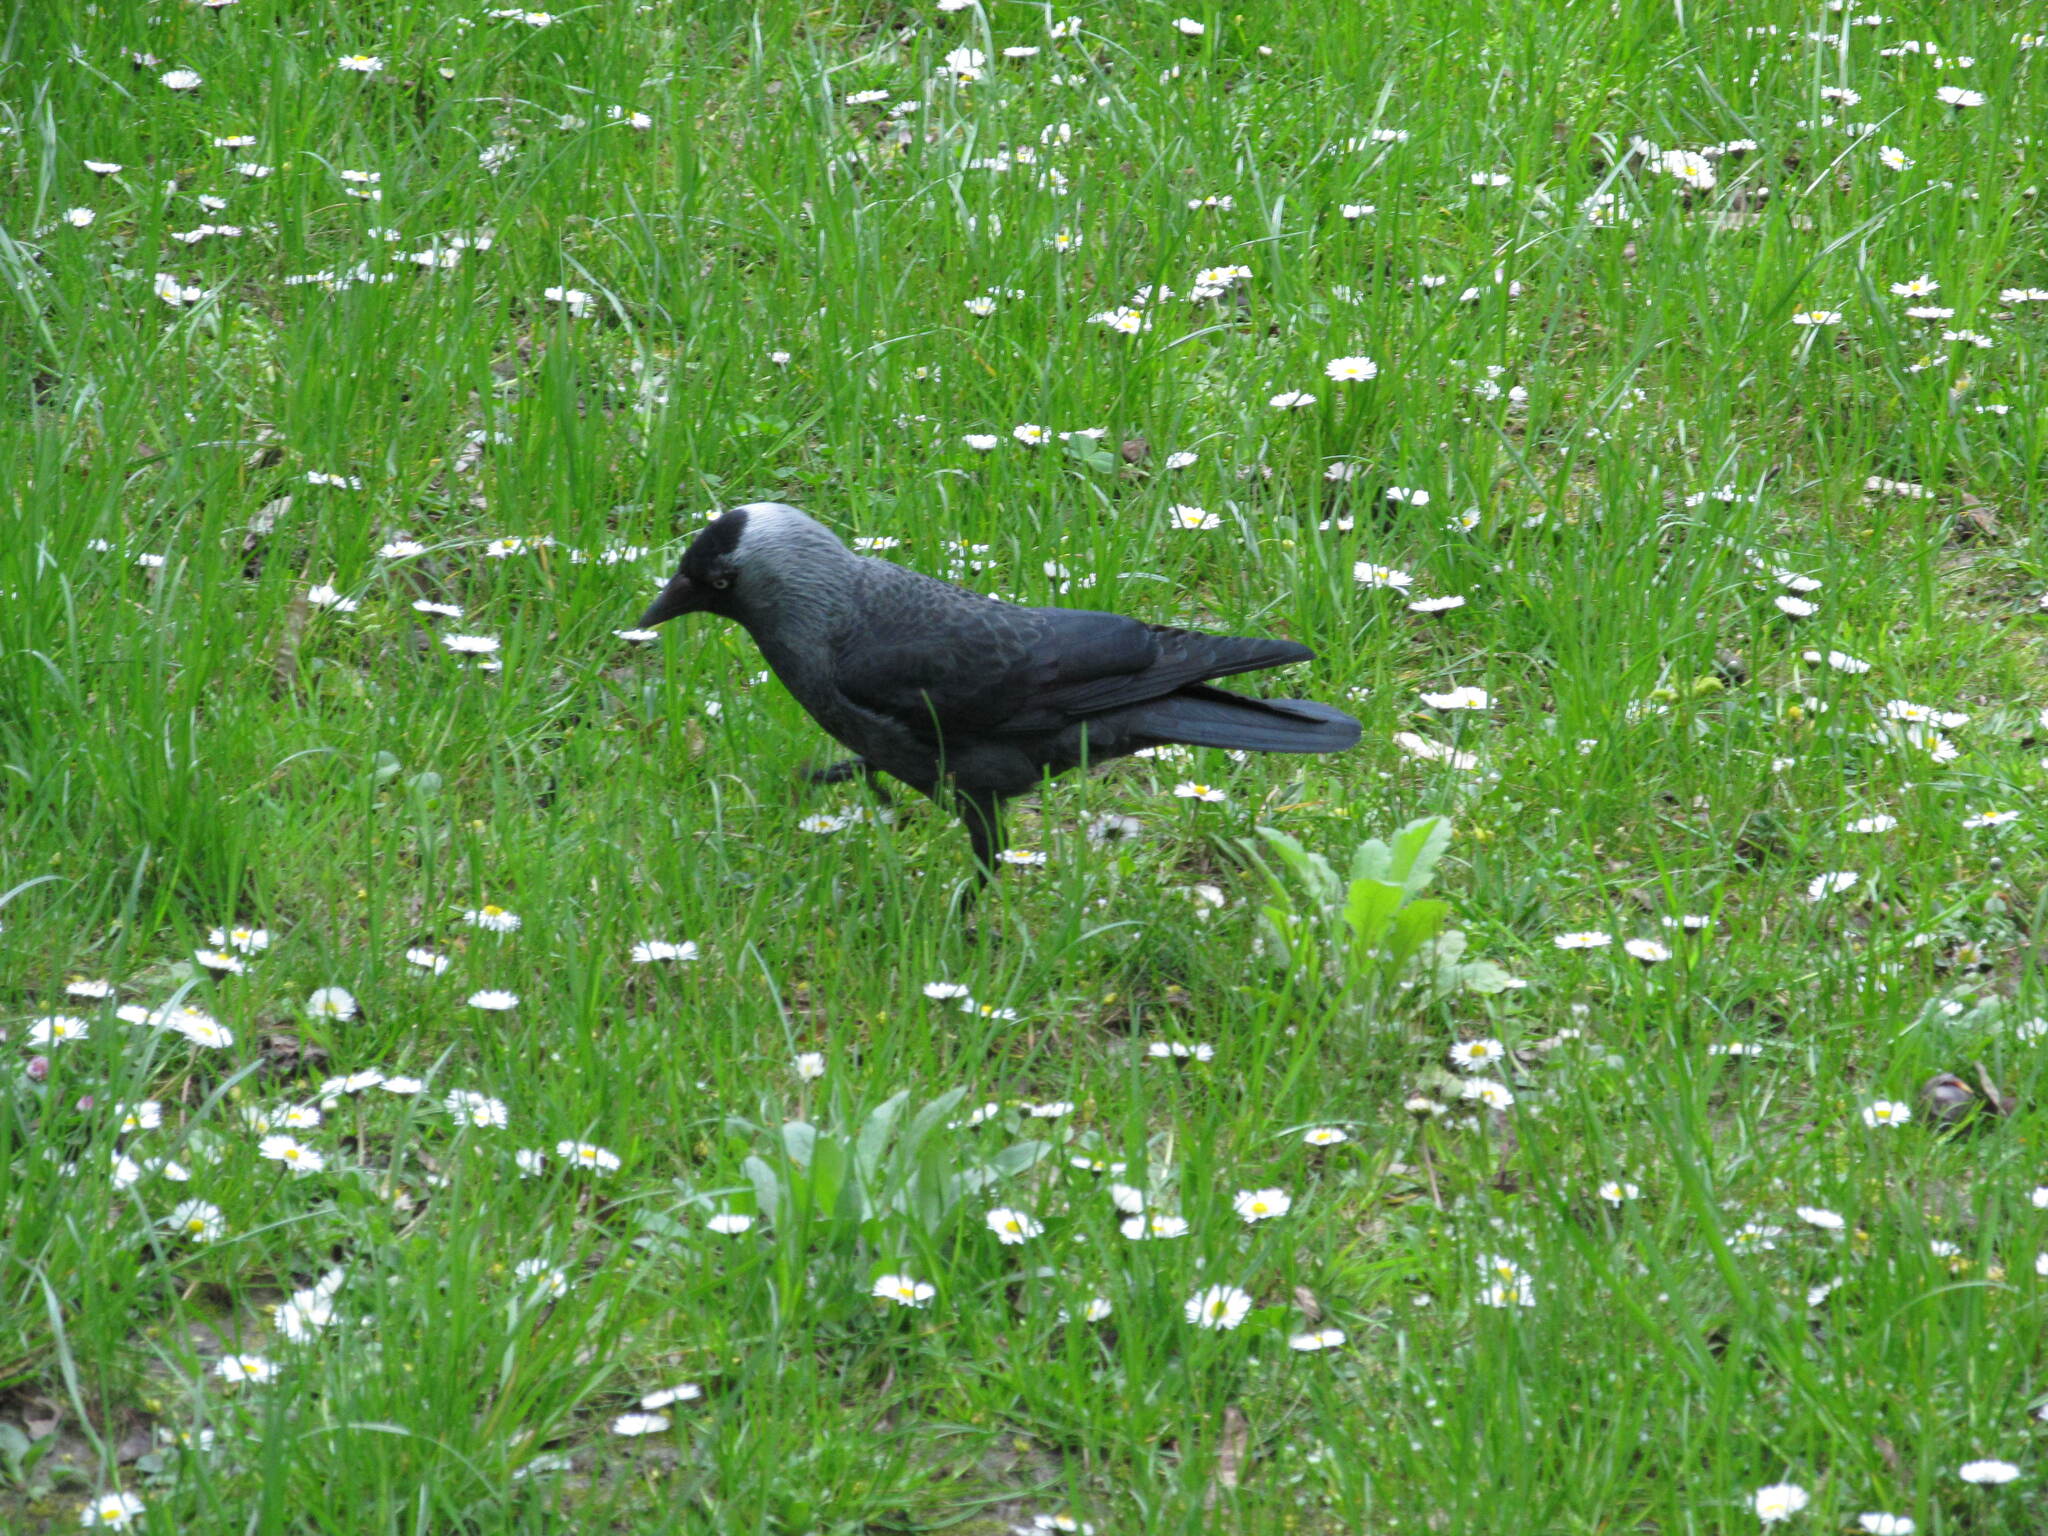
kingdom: Animalia
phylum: Chordata
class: Aves
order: Passeriformes
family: Corvidae
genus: Coloeus
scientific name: Coloeus monedula
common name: Western jackdaw
